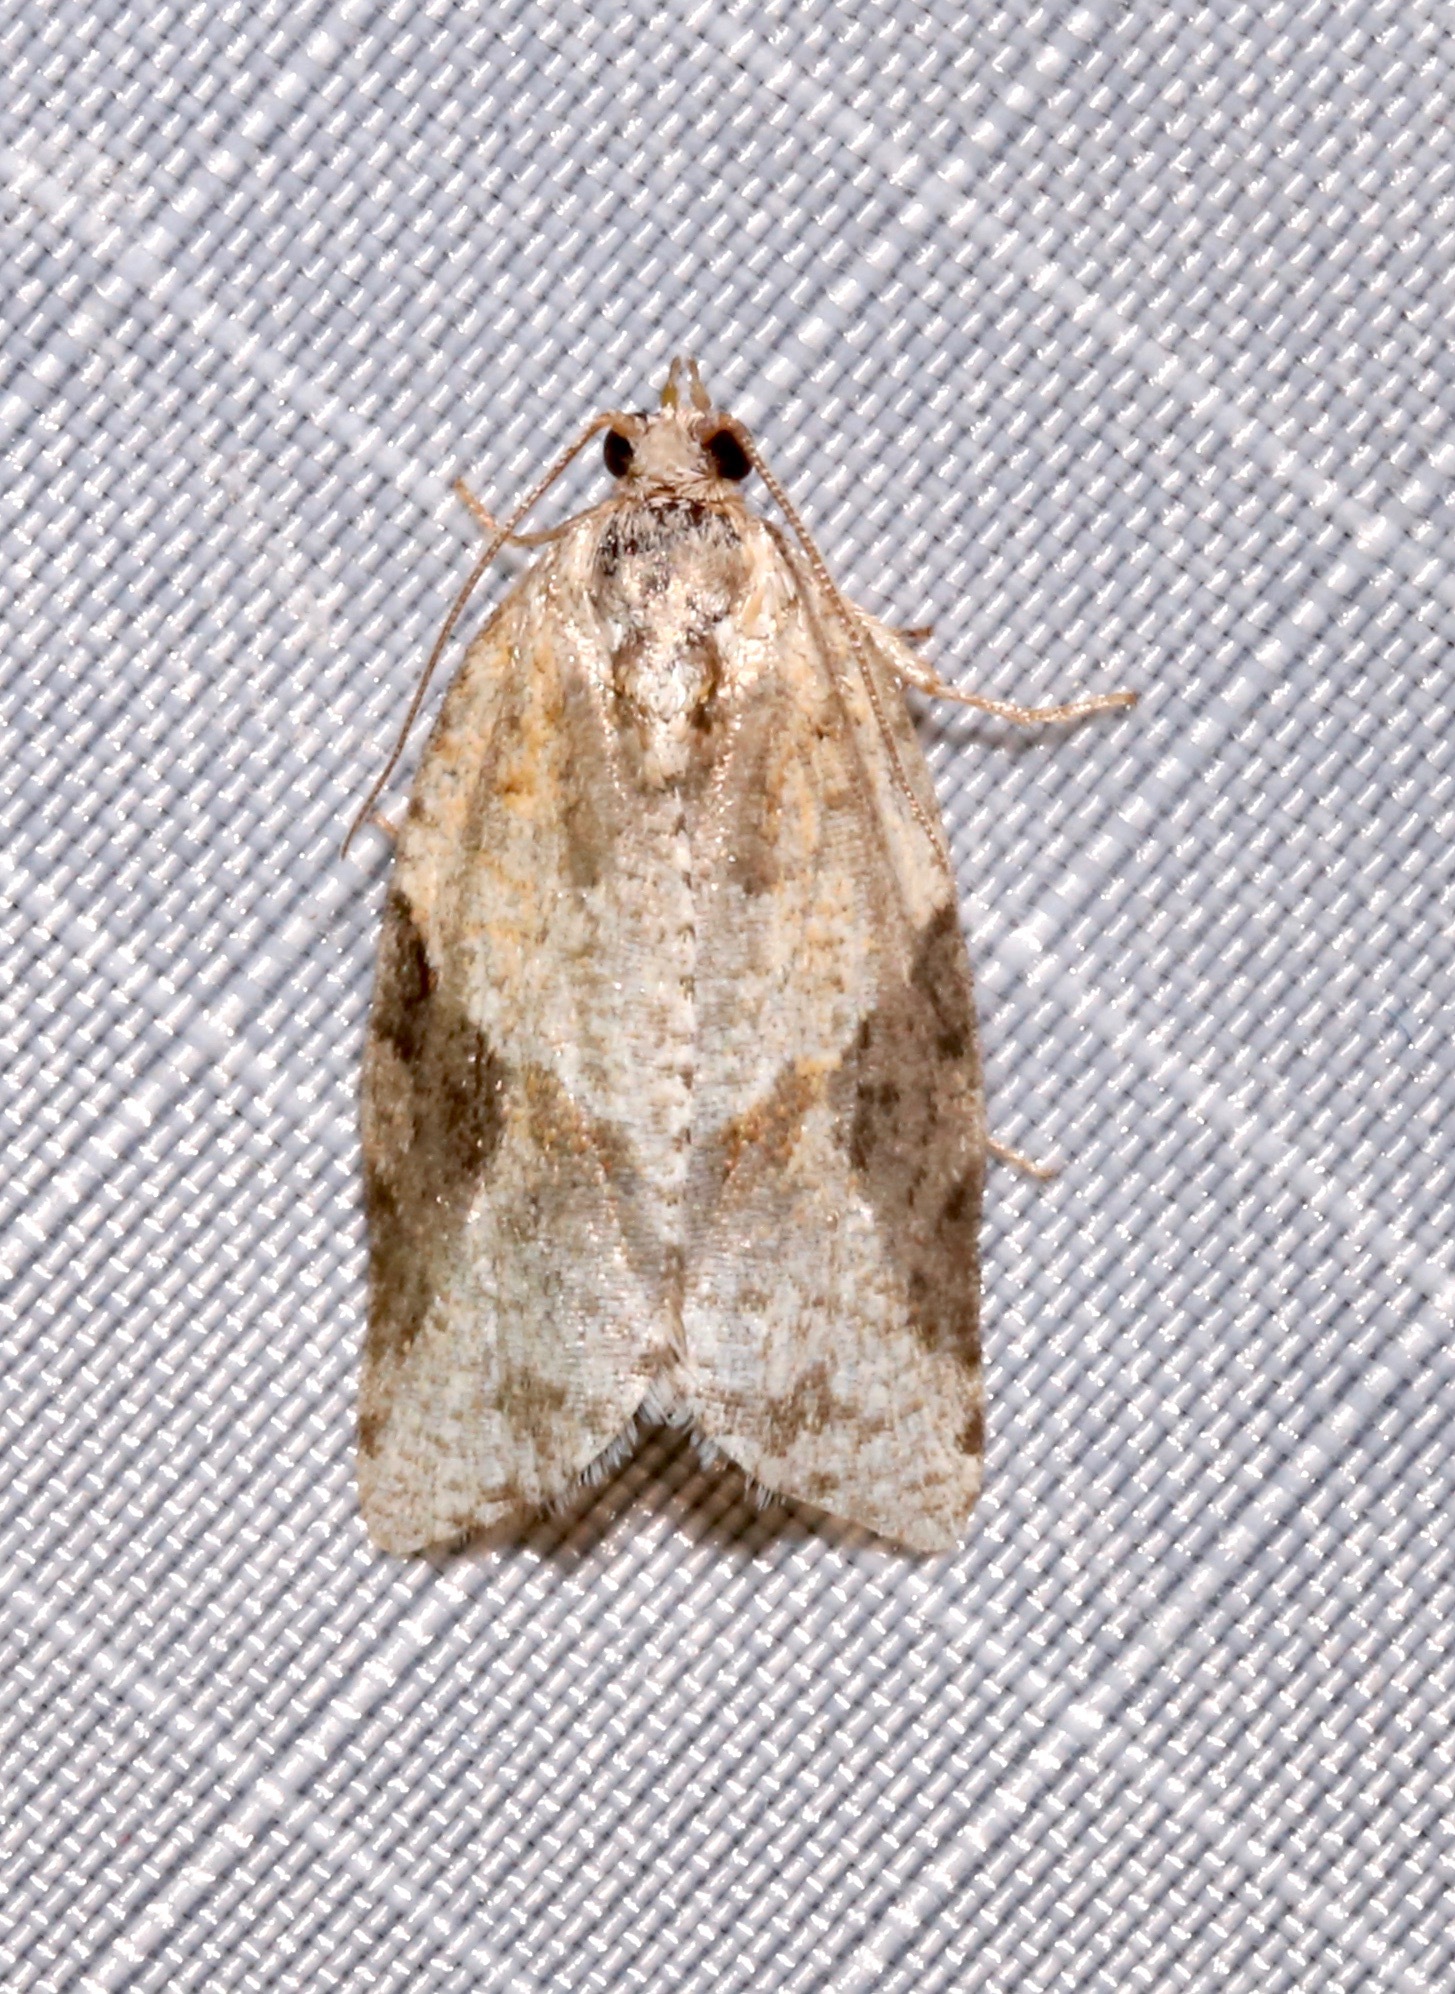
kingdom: Animalia
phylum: Arthropoda
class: Insecta
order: Lepidoptera
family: Tortricidae
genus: Argyrotaenia
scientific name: Argyrotaenia mariana
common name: Gray-banded leafroller moth
